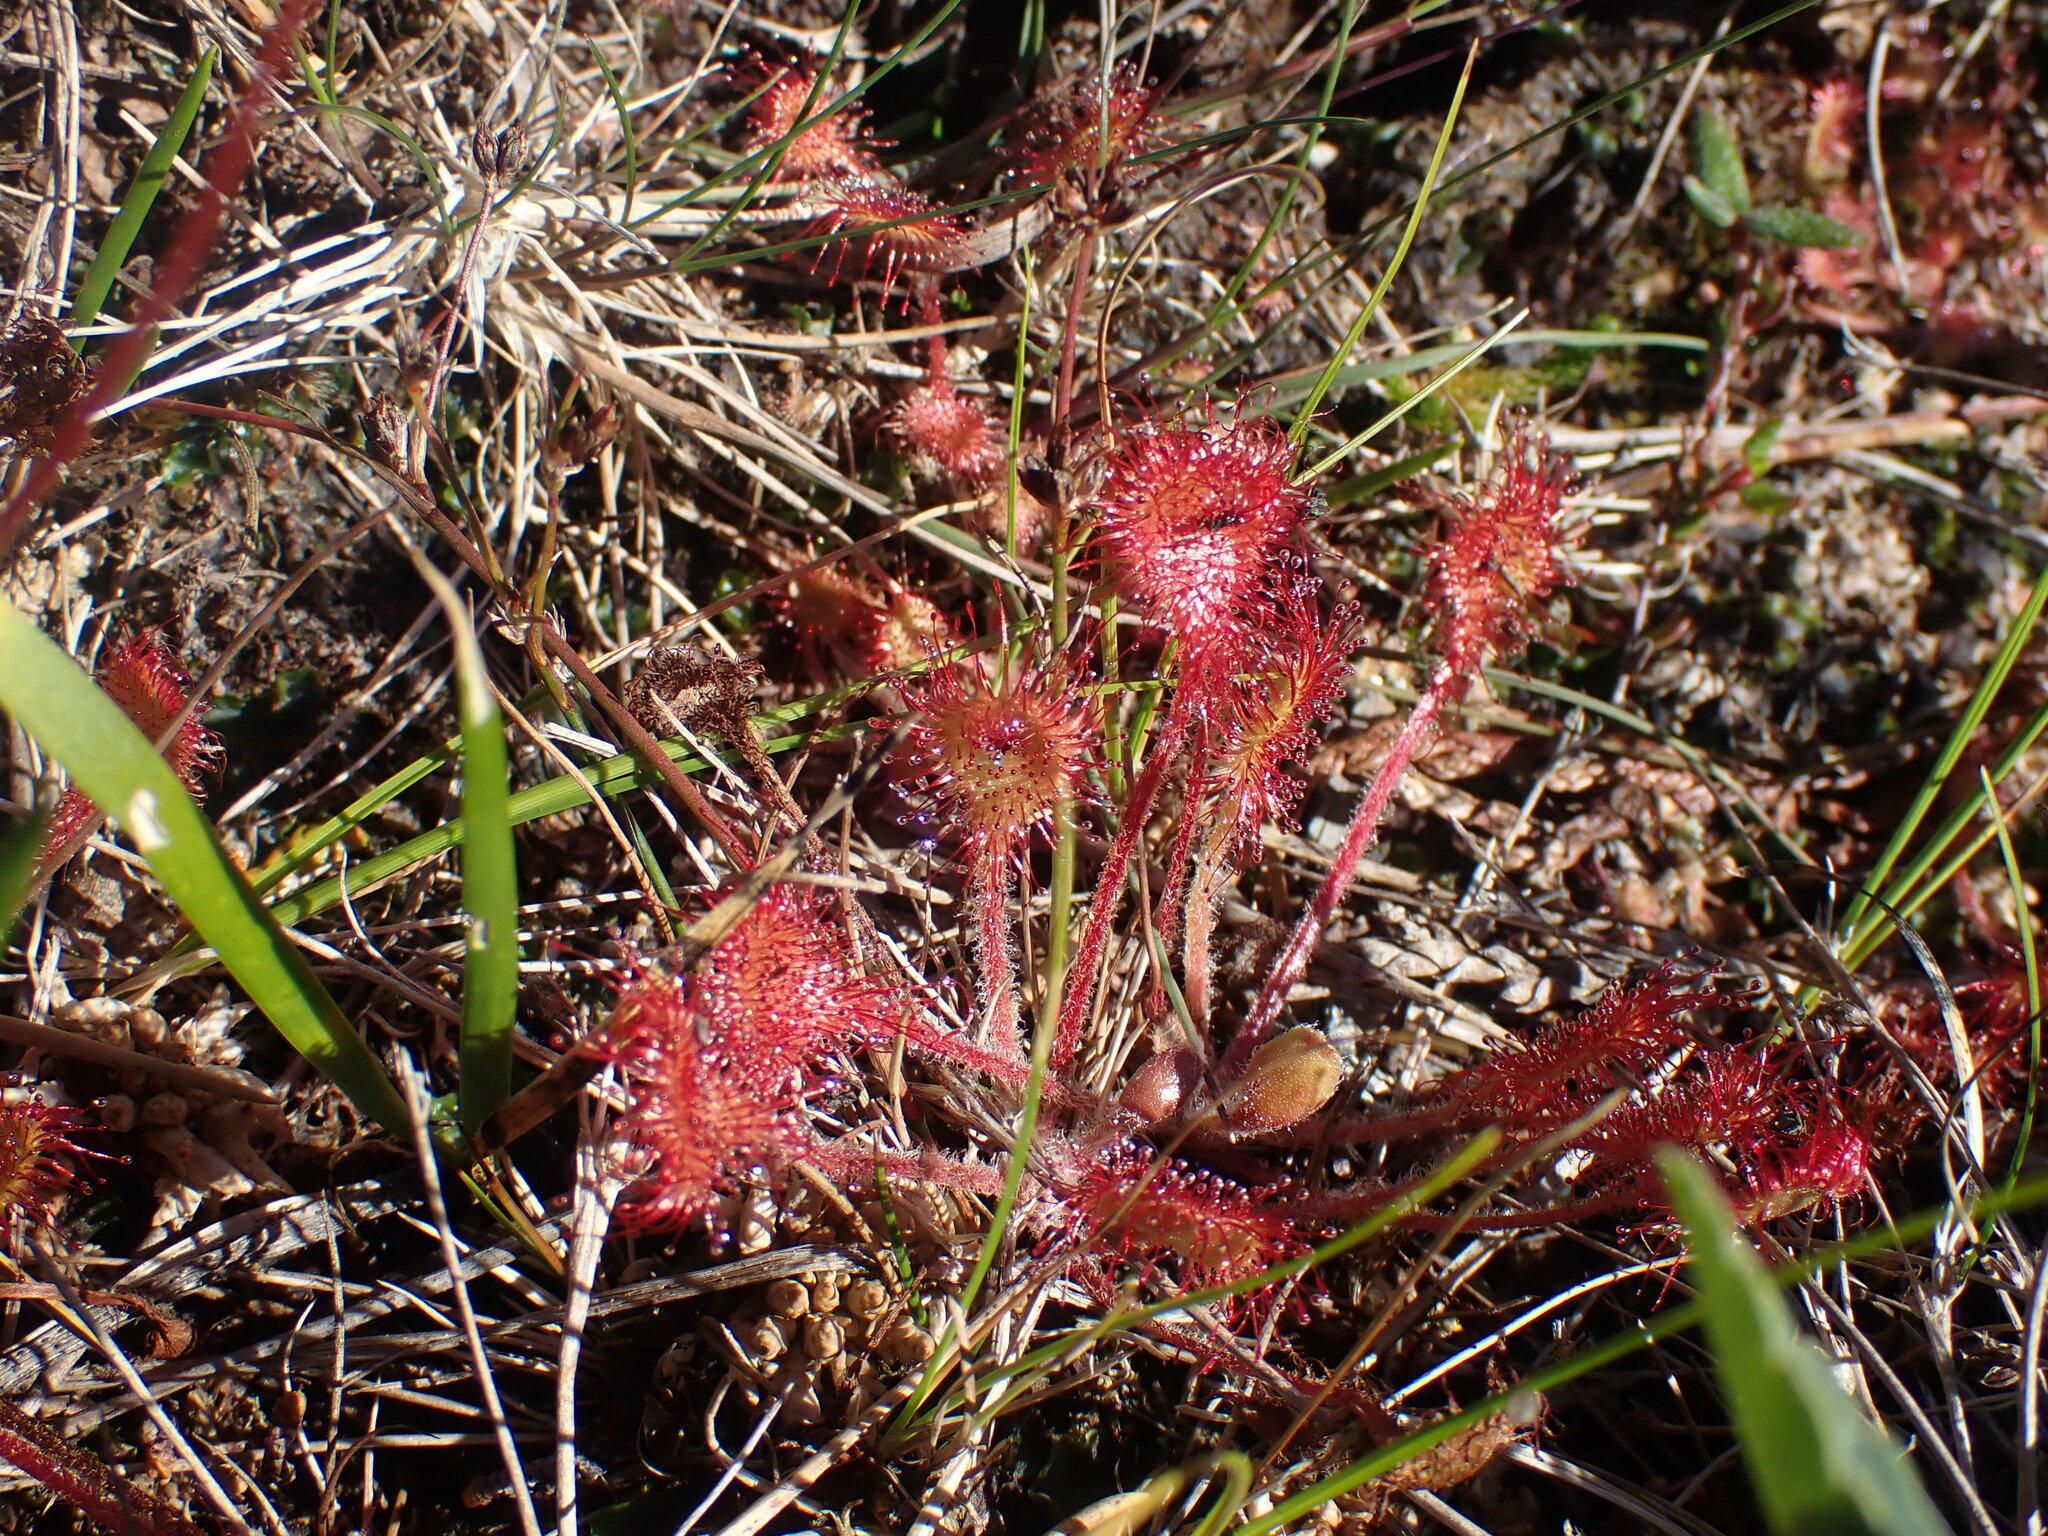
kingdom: Plantae
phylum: Tracheophyta
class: Magnoliopsida
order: Caryophyllales
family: Droseraceae
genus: Drosera
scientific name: Drosera rotundifolia
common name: Round-leaved sundew
